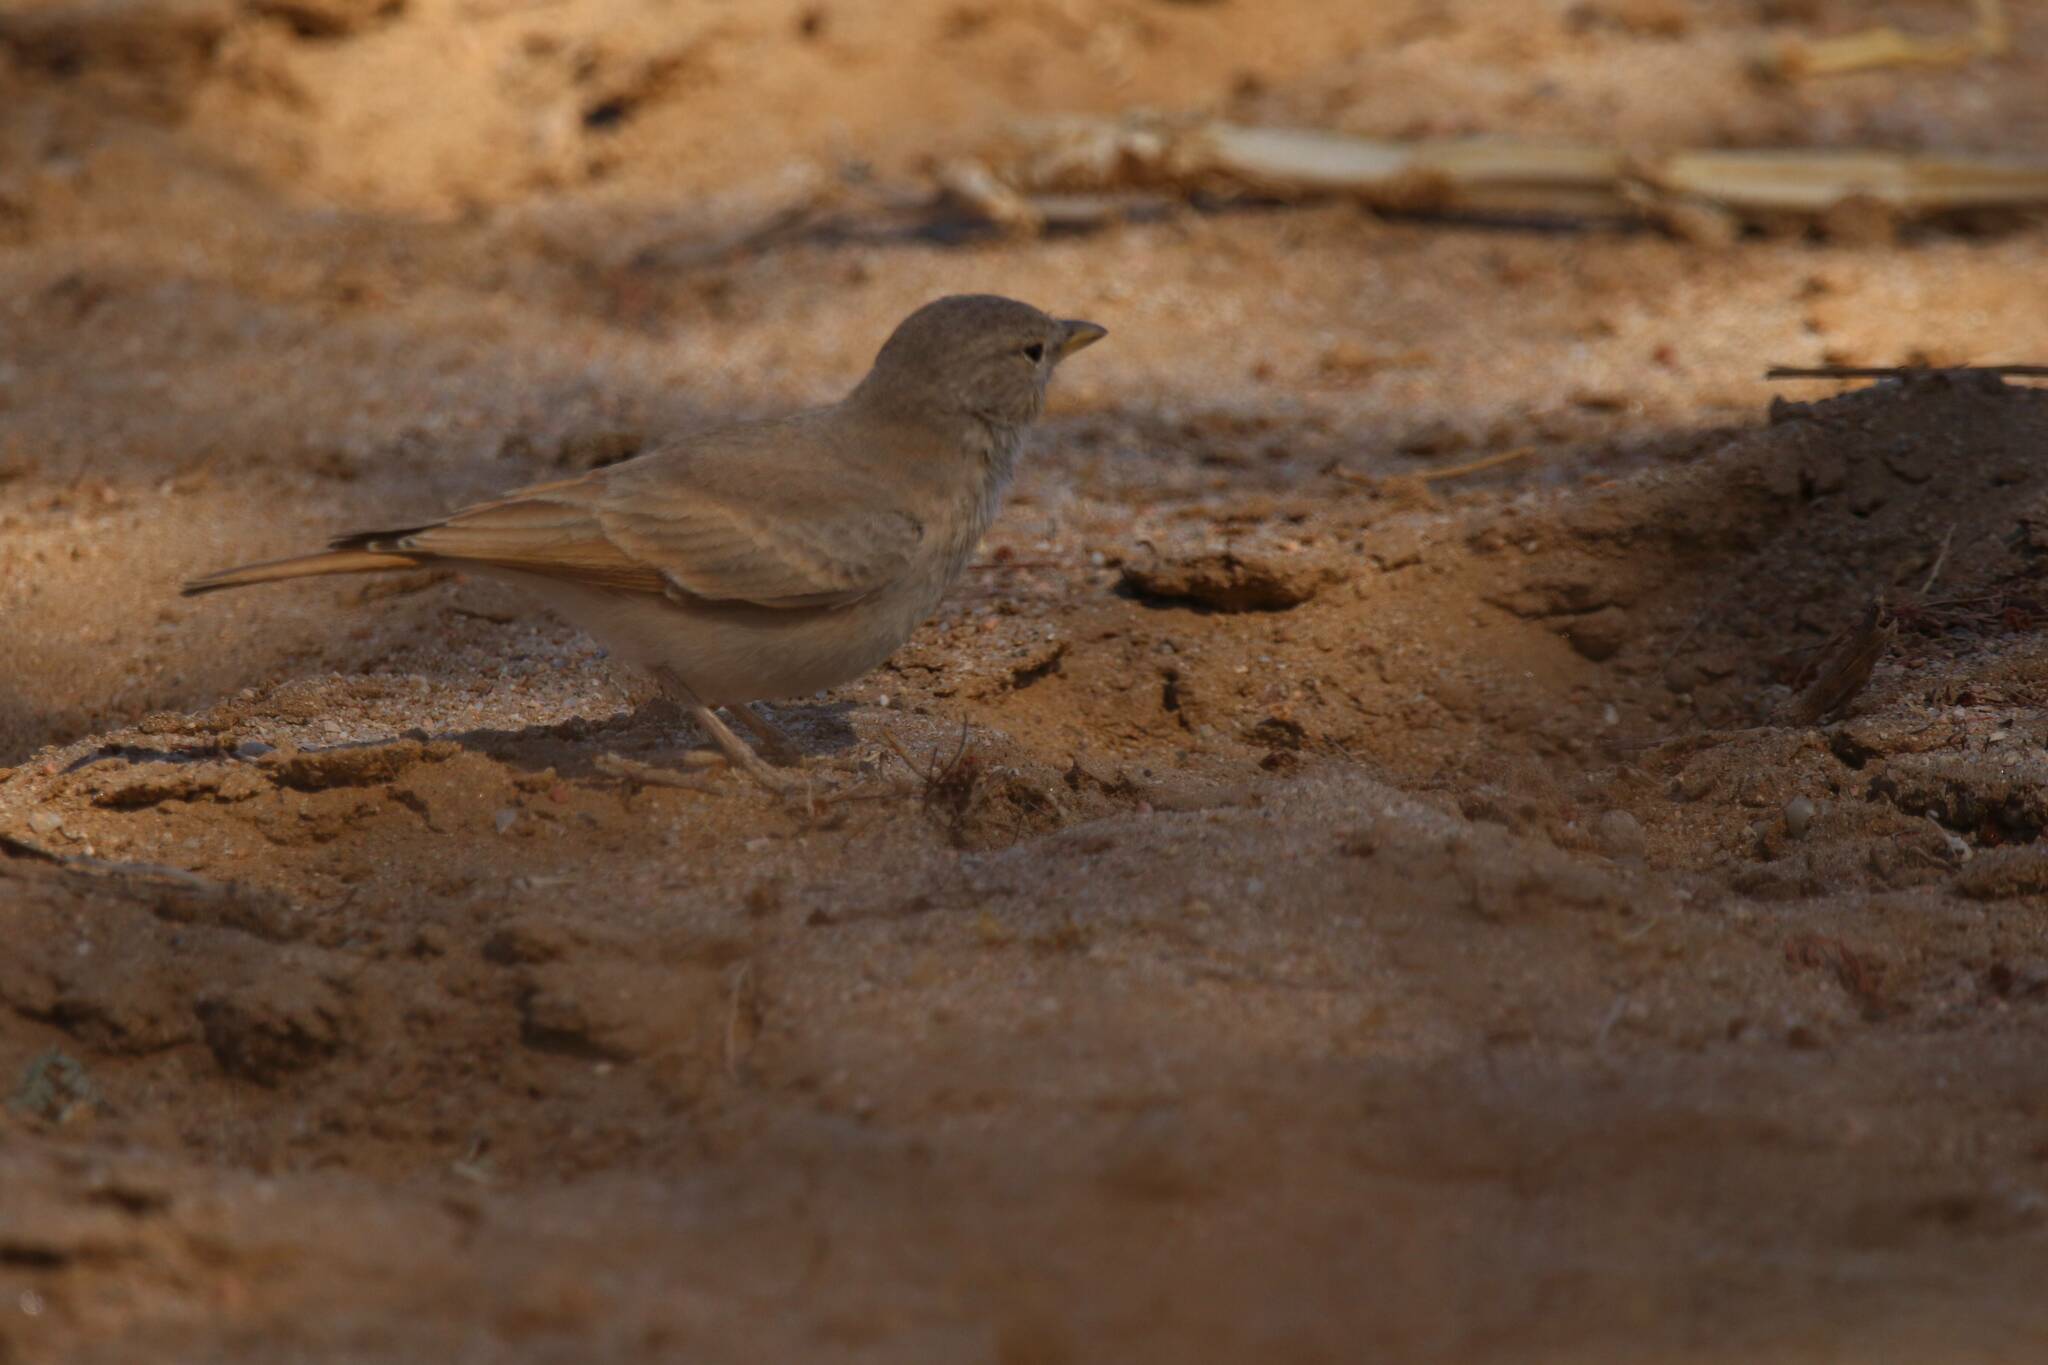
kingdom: Animalia
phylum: Chordata
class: Aves
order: Passeriformes
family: Alaudidae
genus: Ammomanes
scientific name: Ammomanes deserti
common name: Desert lark
